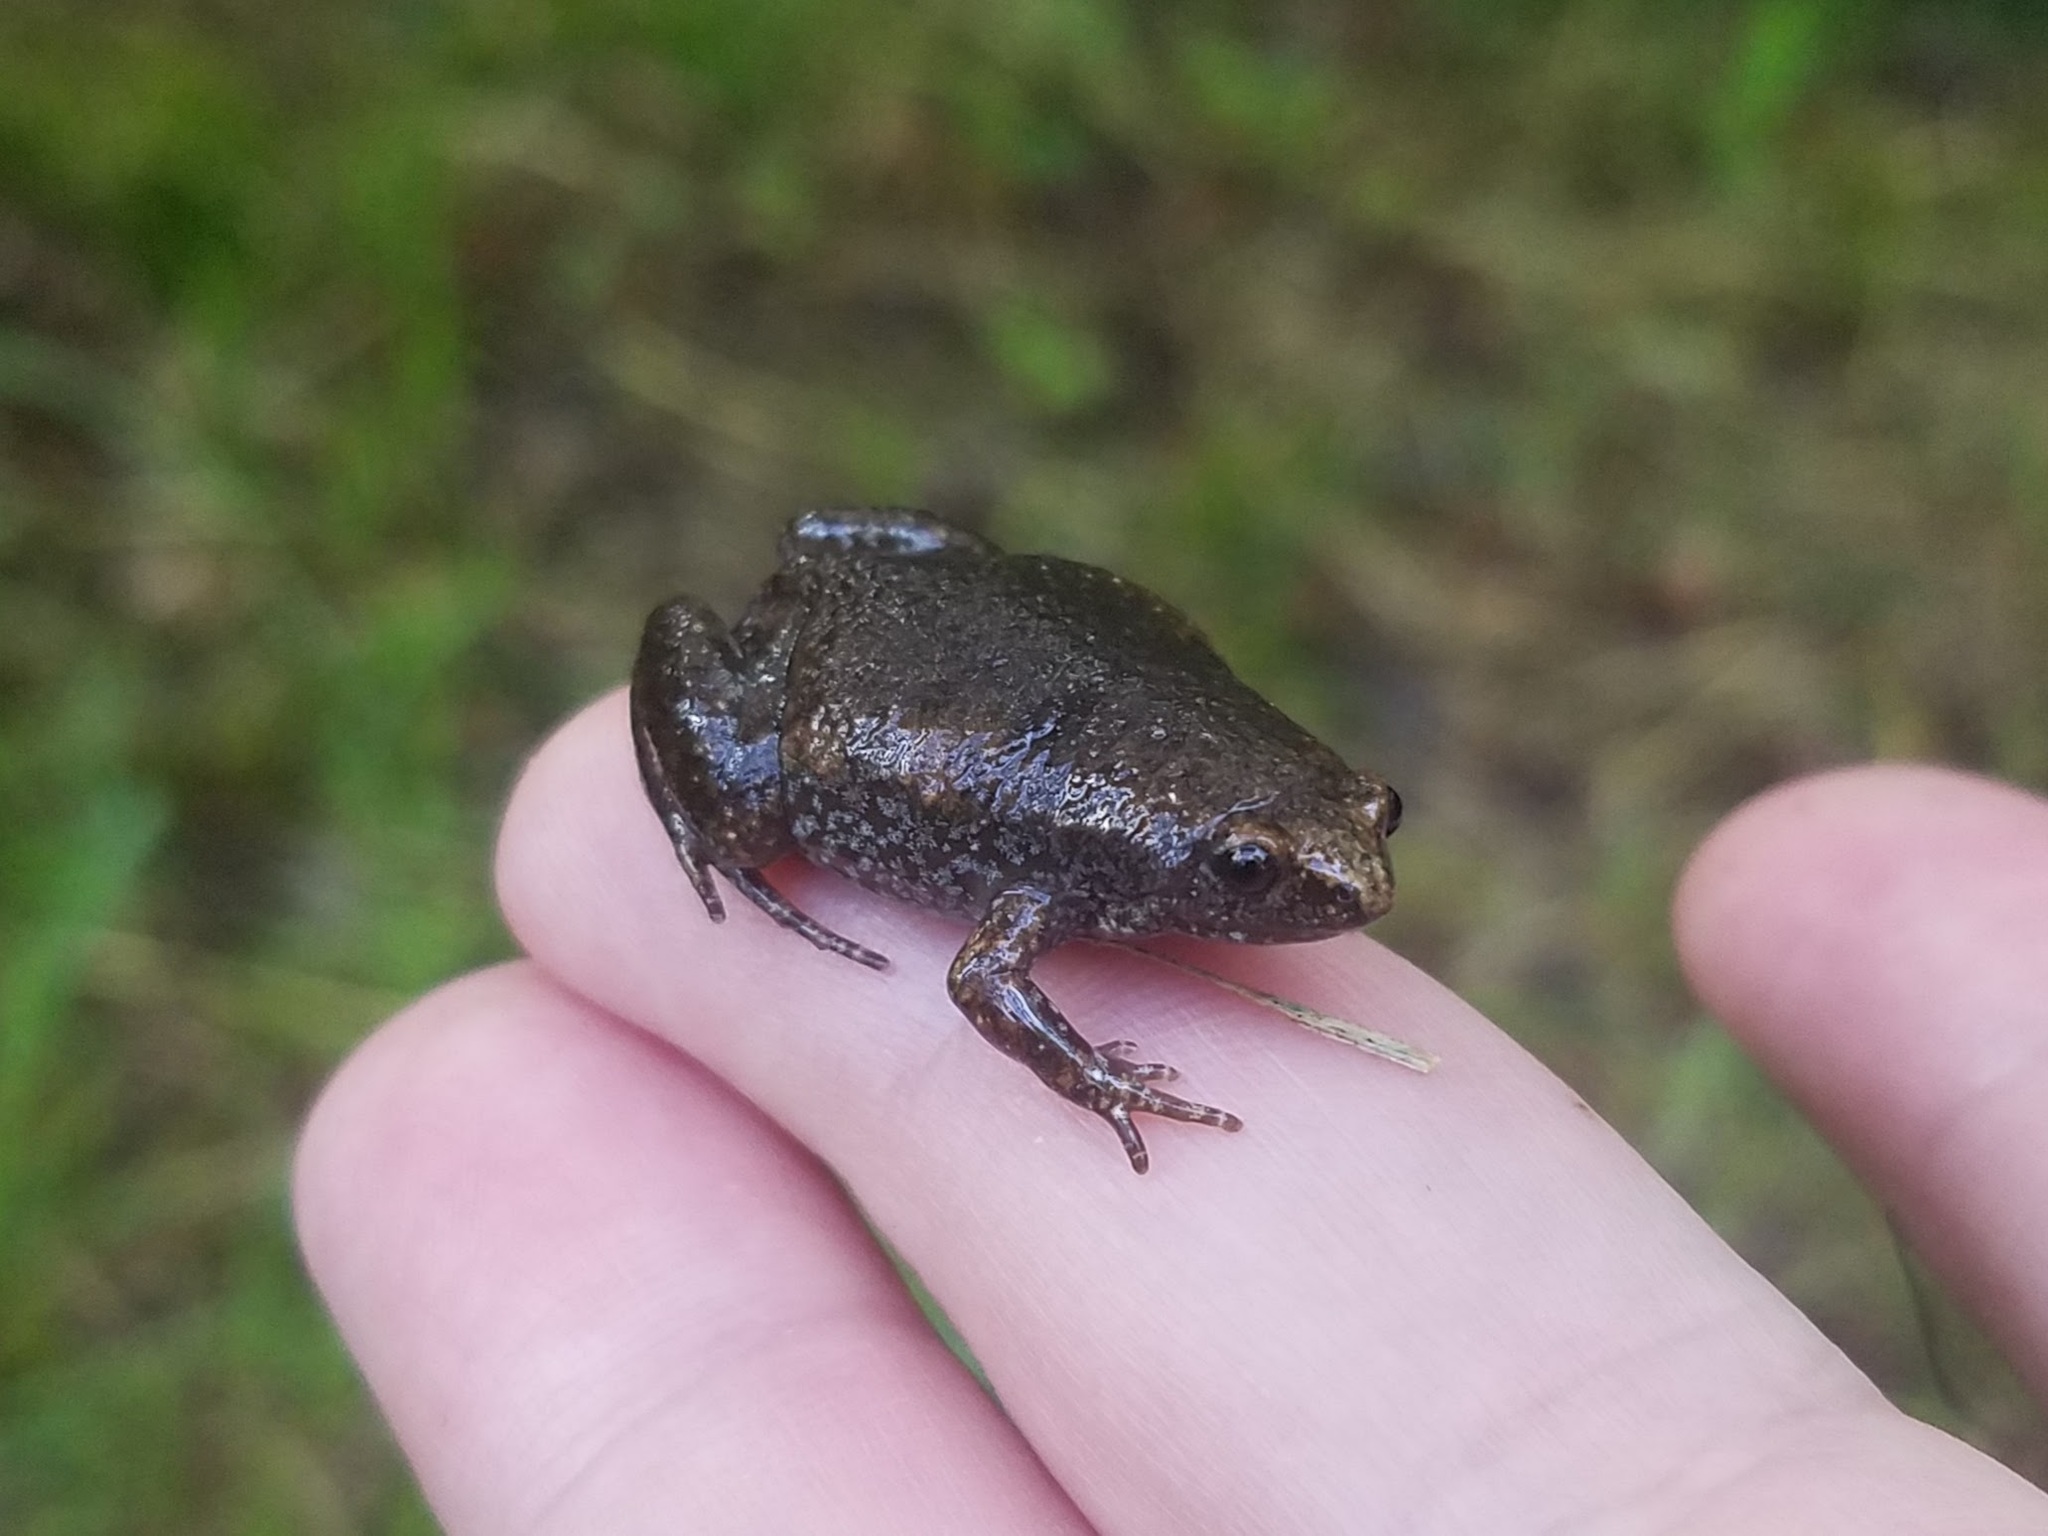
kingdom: Animalia
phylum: Chordata
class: Amphibia
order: Anura
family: Microhylidae
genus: Gastrophryne
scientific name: Gastrophryne carolinensis
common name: Eastern narrowmouth toad
